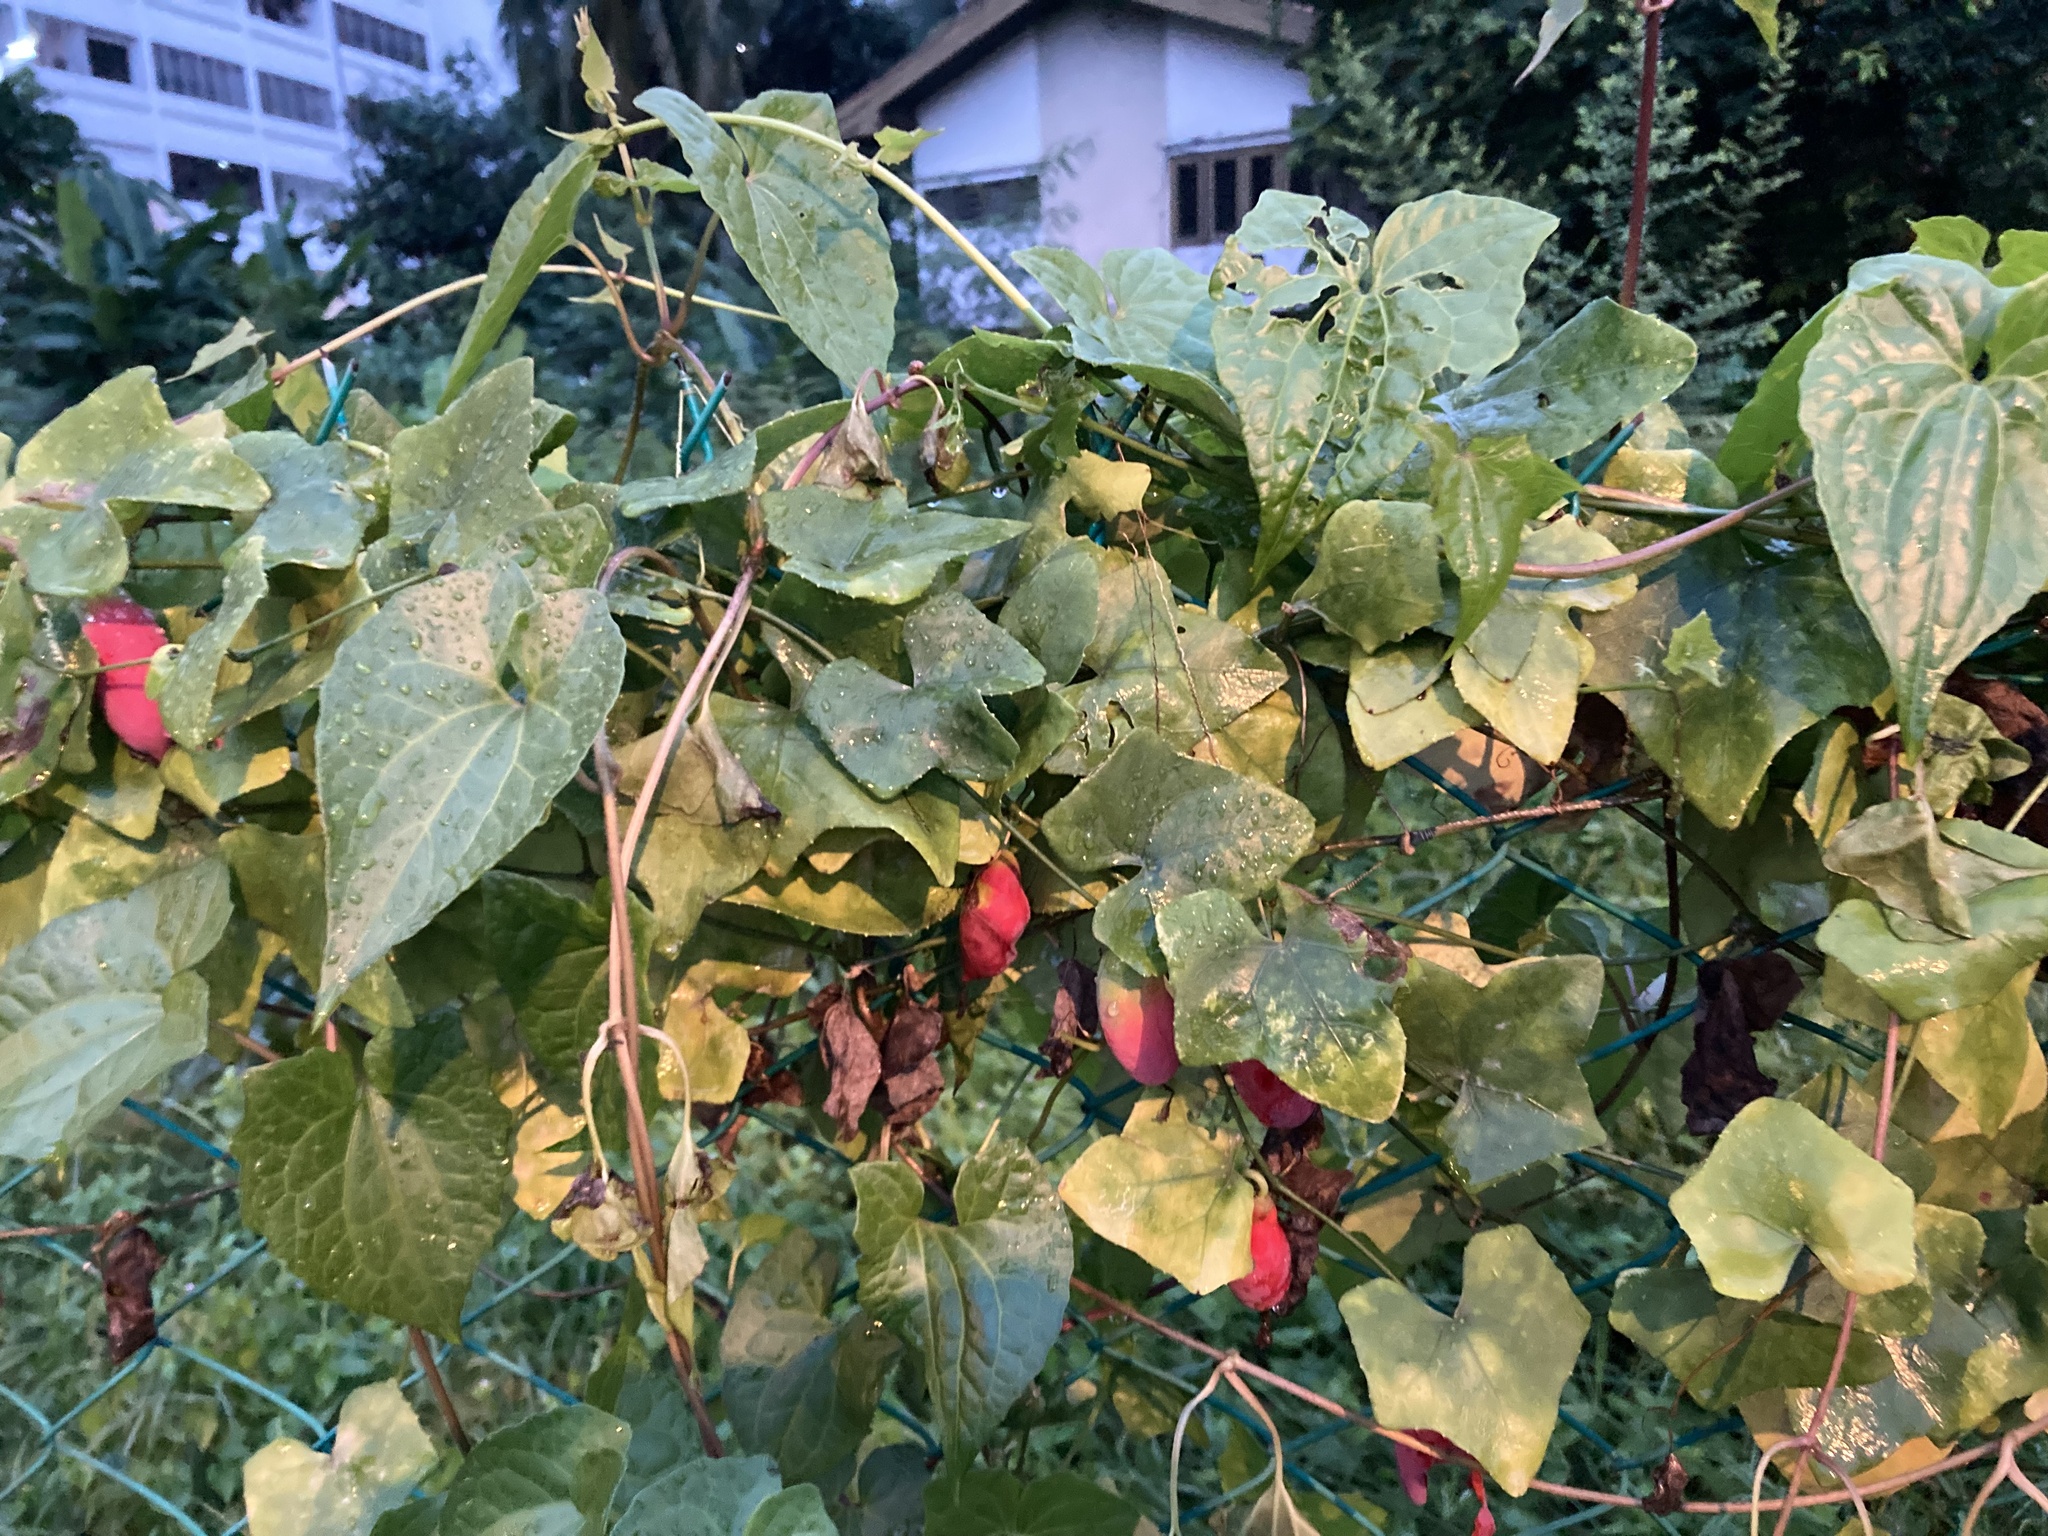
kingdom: Plantae
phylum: Tracheophyta
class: Magnoliopsida
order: Cucurbitales
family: Cucurbitaceae
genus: Coccinia
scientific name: Coccinia grandis
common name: Ivy gourd
